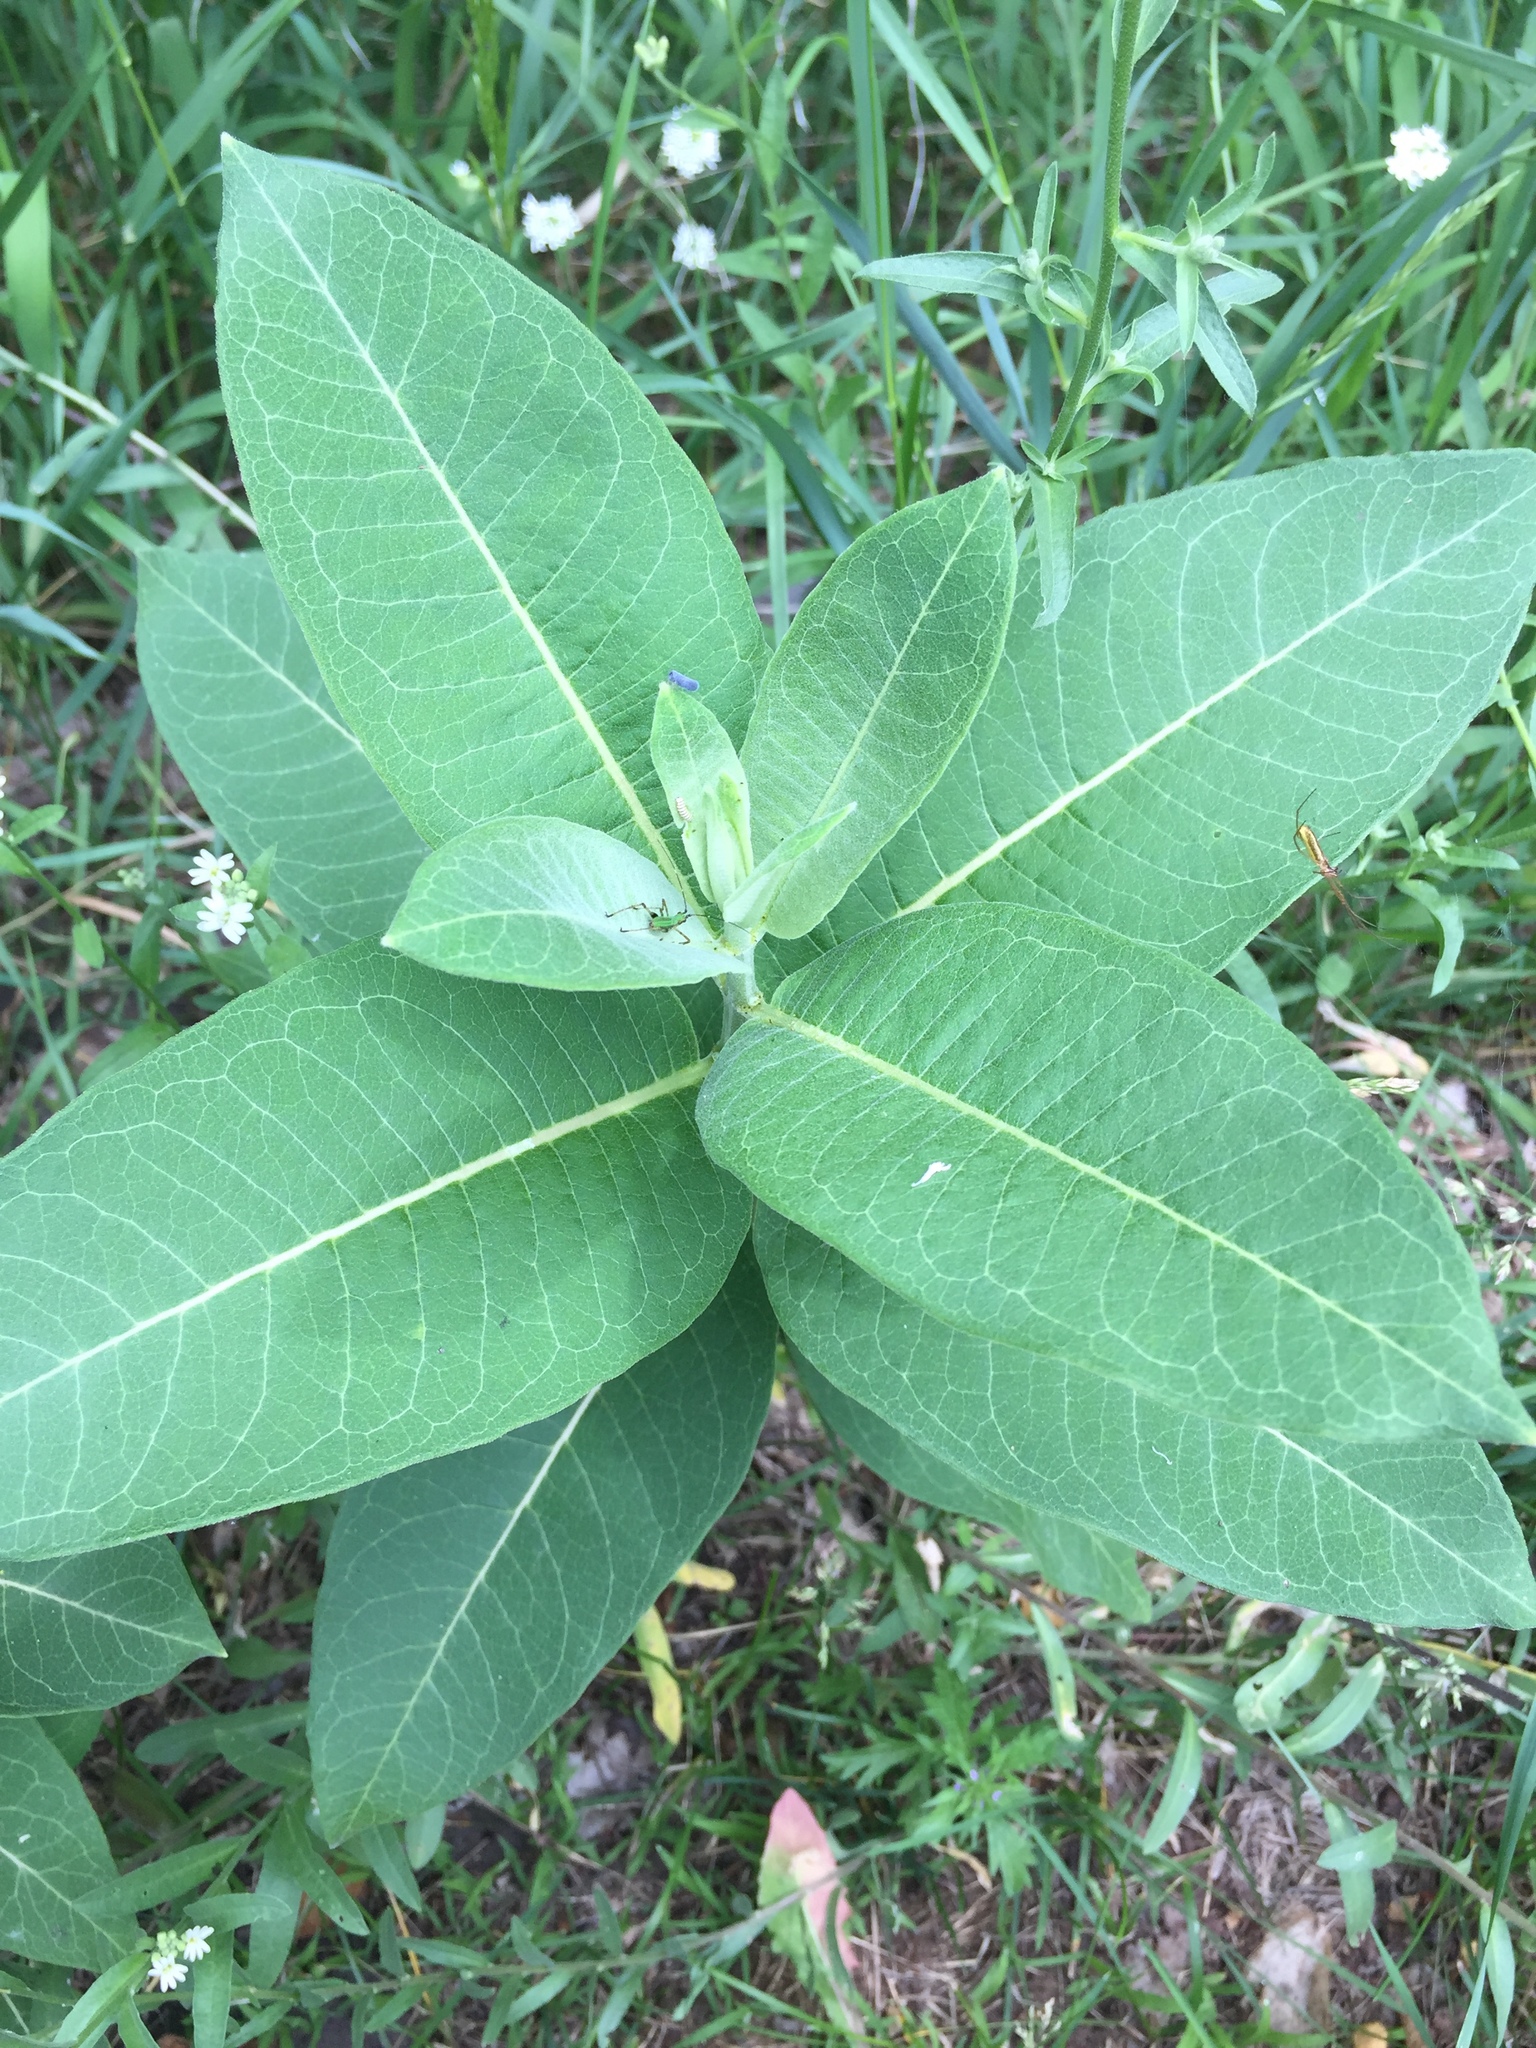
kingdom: Plantae
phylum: Tracheophyta
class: Magnoliopsida
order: Gentianales
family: Apocynaceae
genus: Asclepias
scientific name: Asclepias syriaca
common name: Common milkweed
